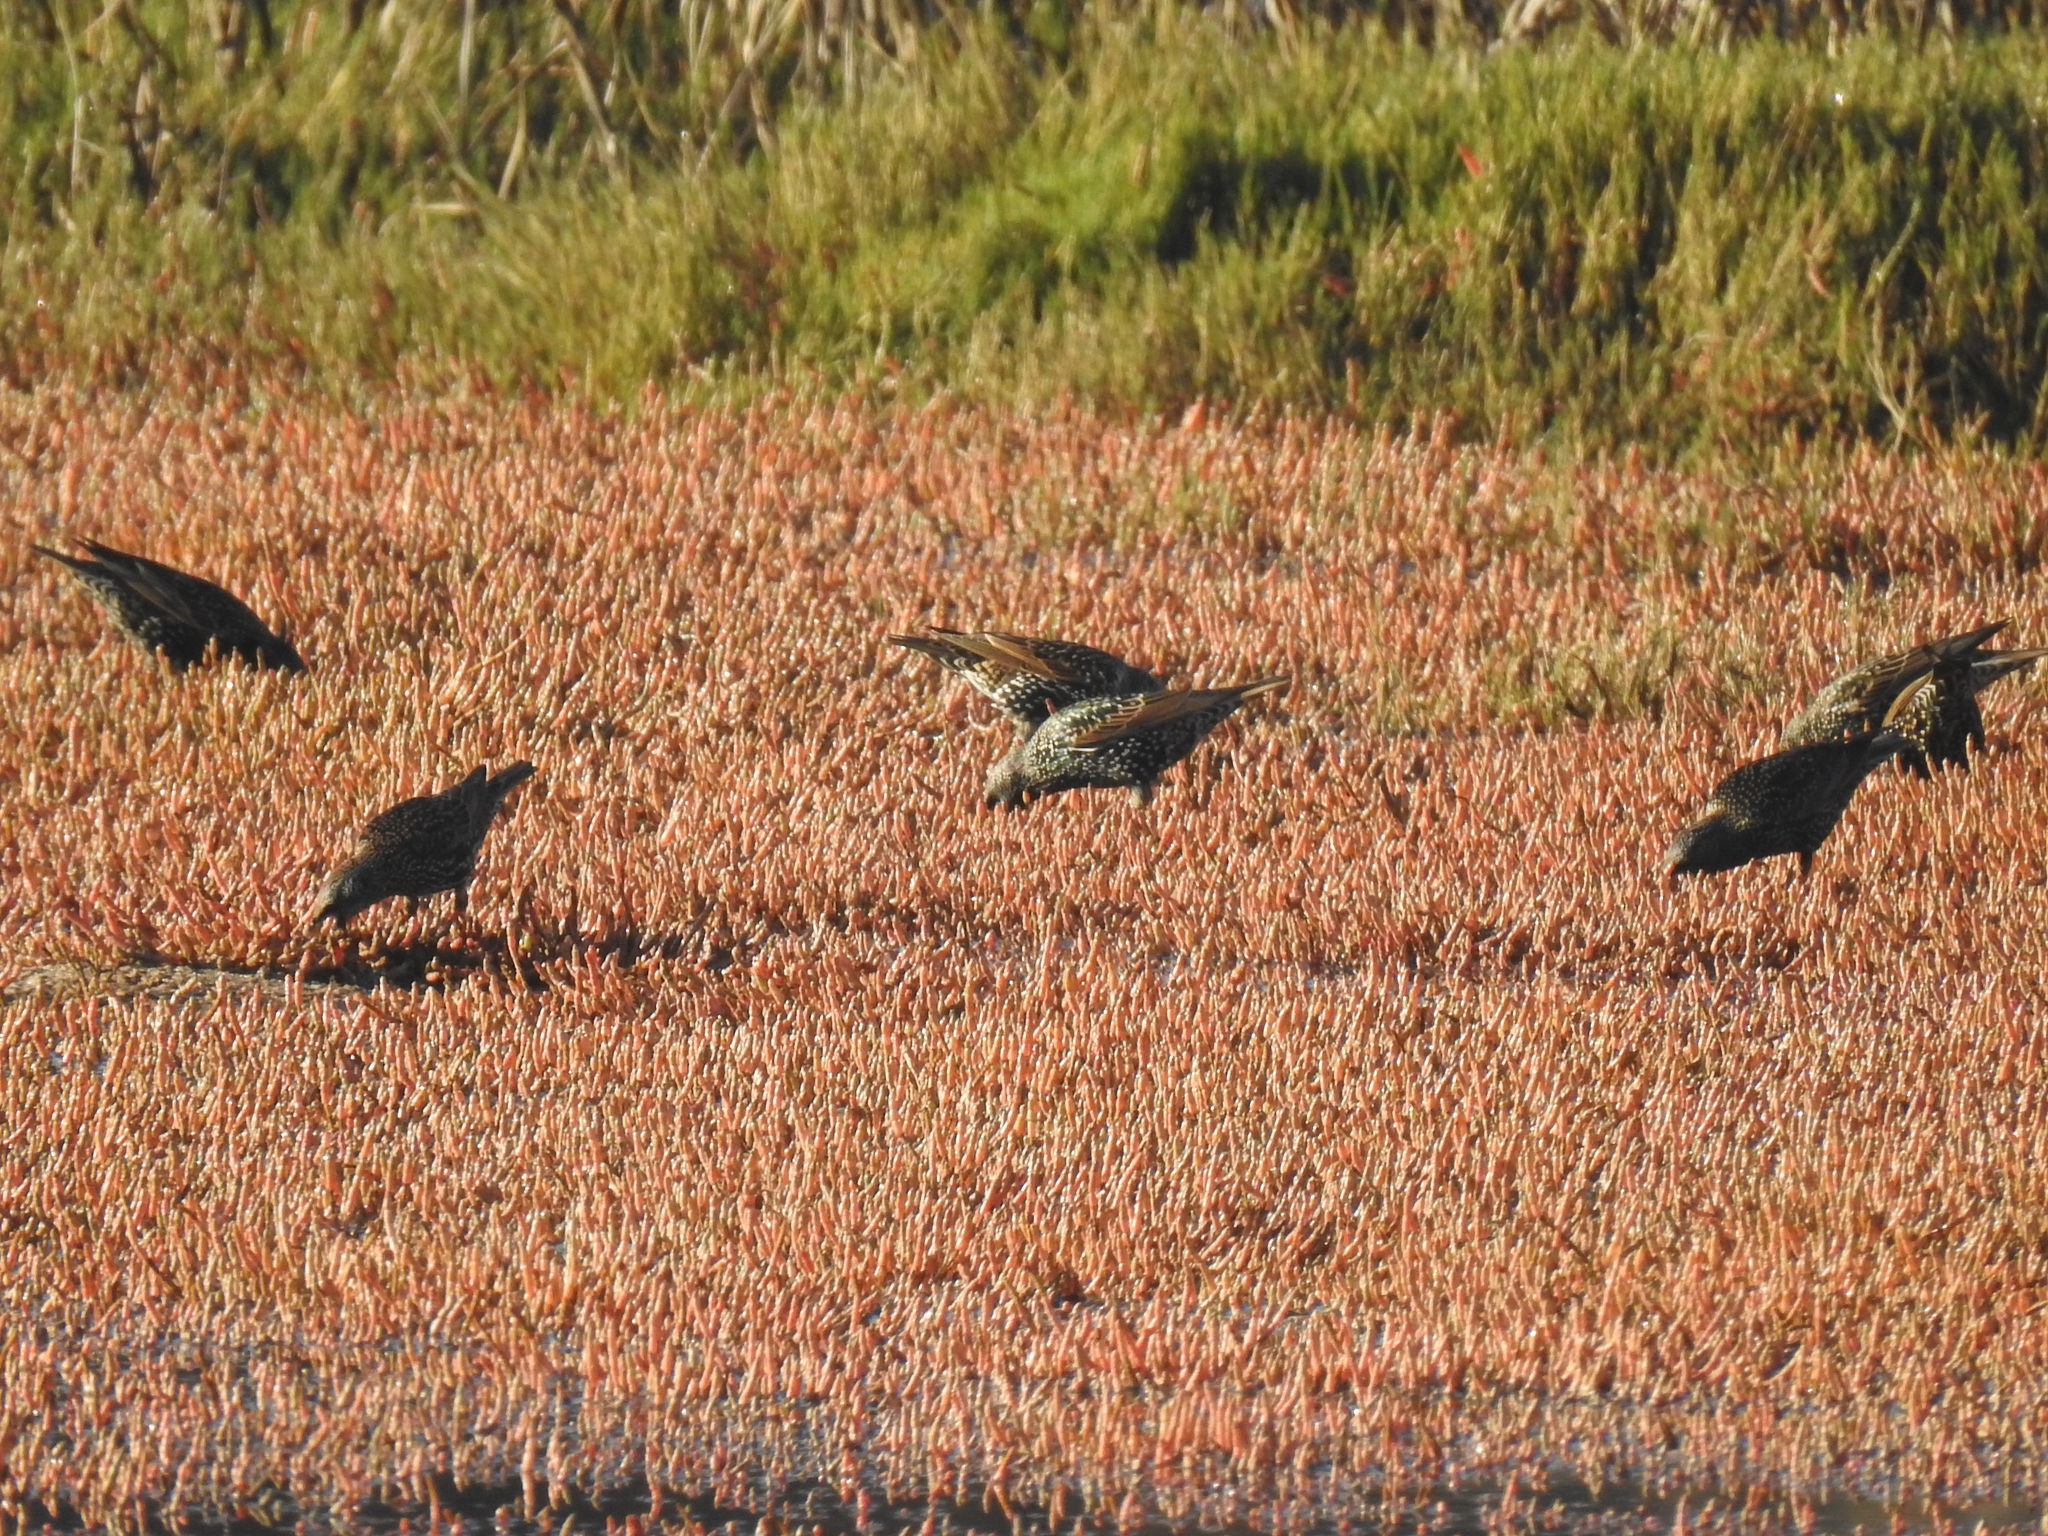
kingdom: Animalia
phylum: Chordata
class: Aves
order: Passeriformes
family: Sturnidae
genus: Sturnus
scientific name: Sturnus vulgaris
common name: Common starling
